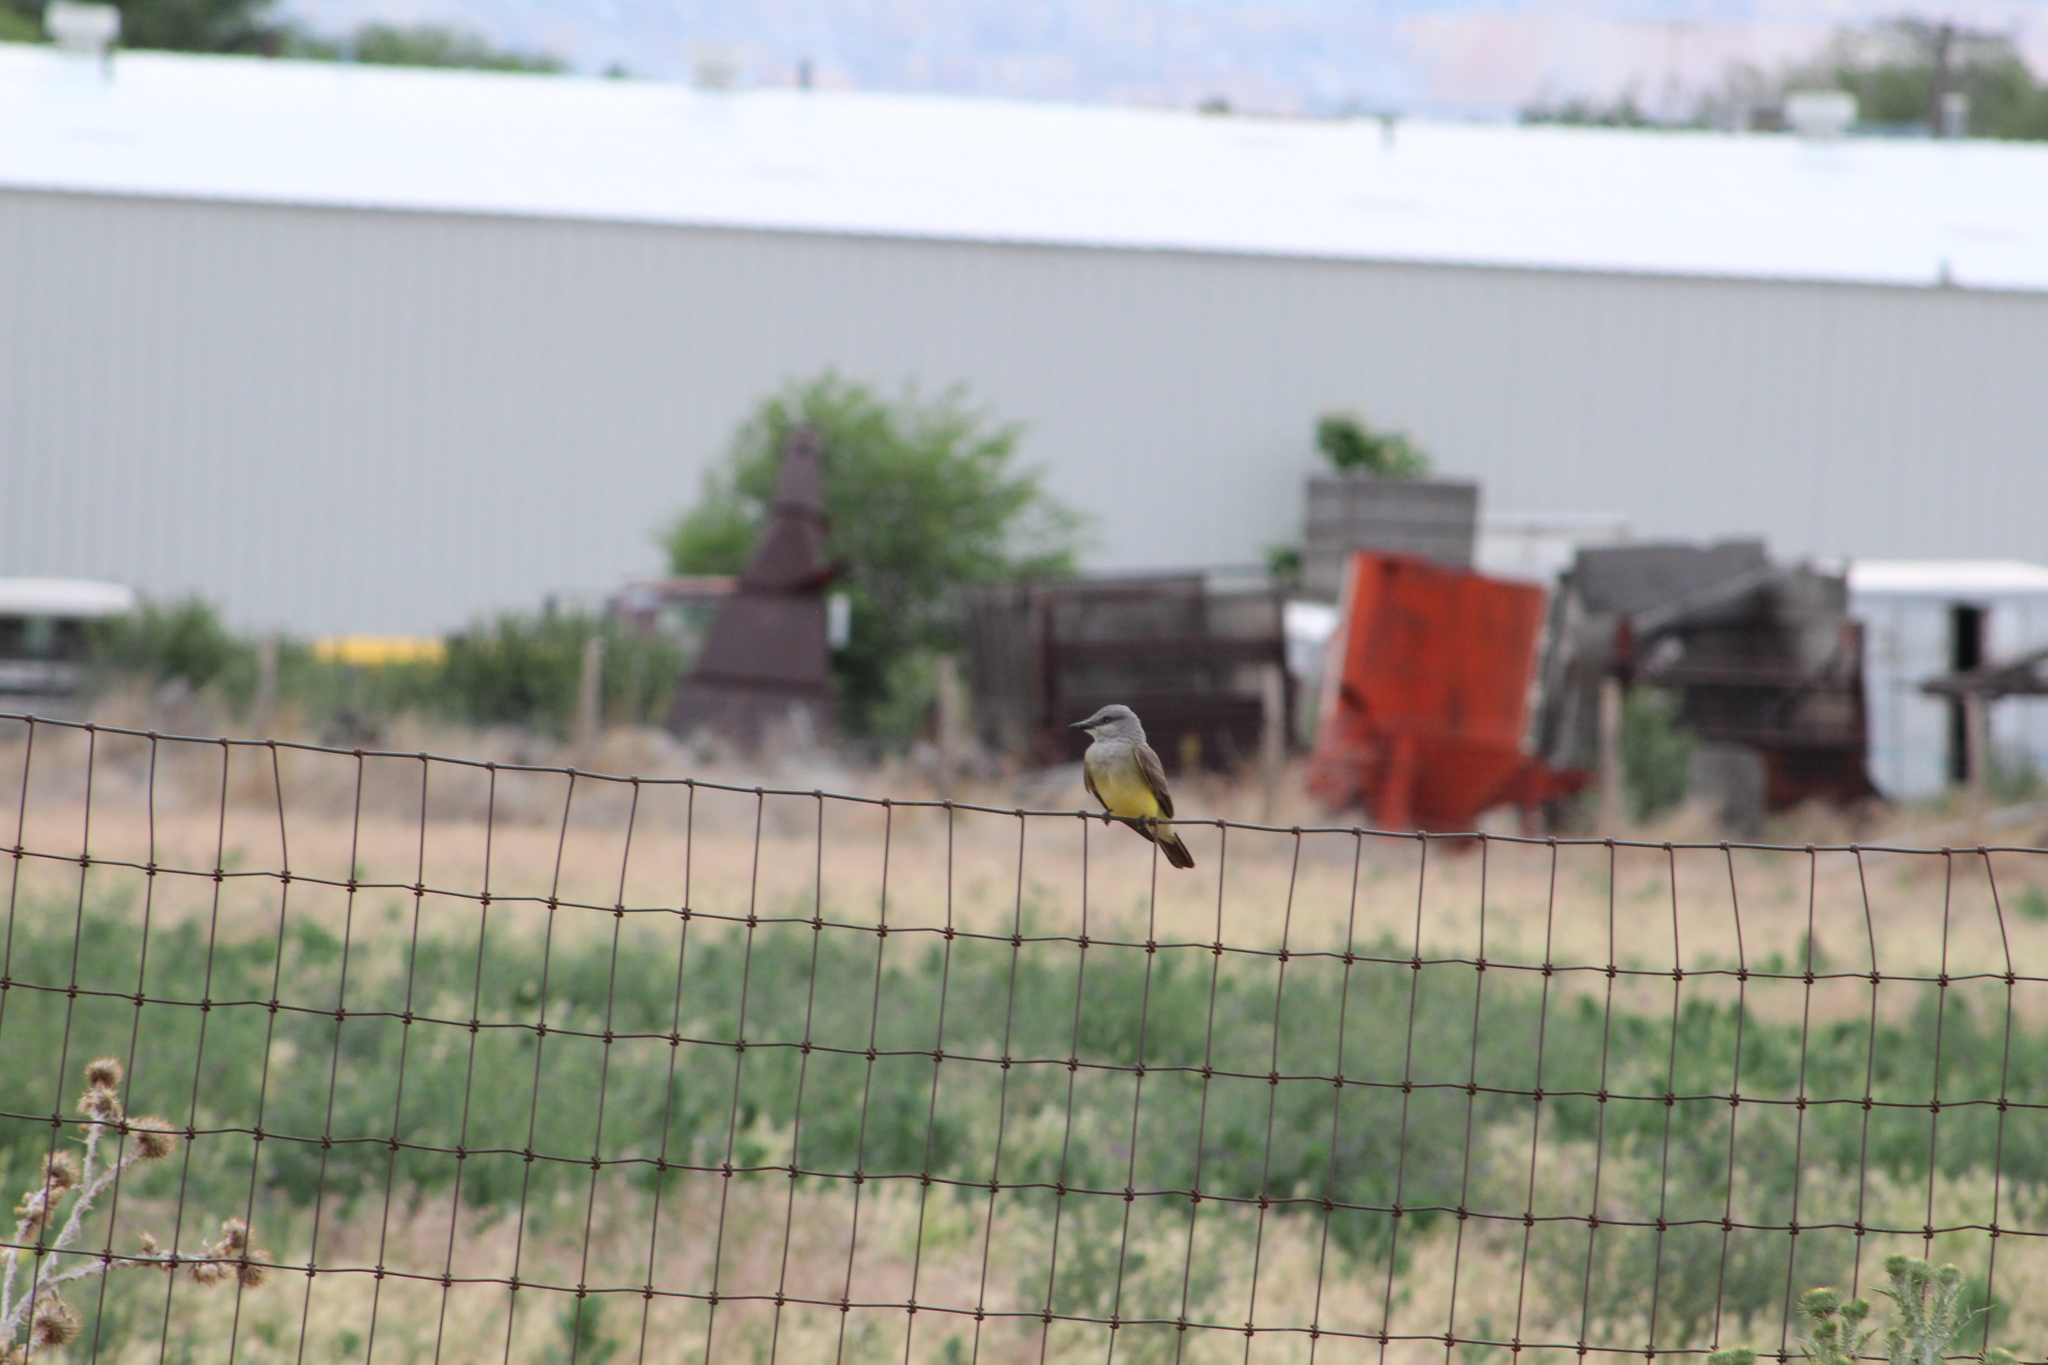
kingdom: Animalia
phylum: Chordata
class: Aves
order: Passeriformes
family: Tyrannidae
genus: Tyrannus
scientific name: Tyrannus verticalis
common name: Western kingbird
